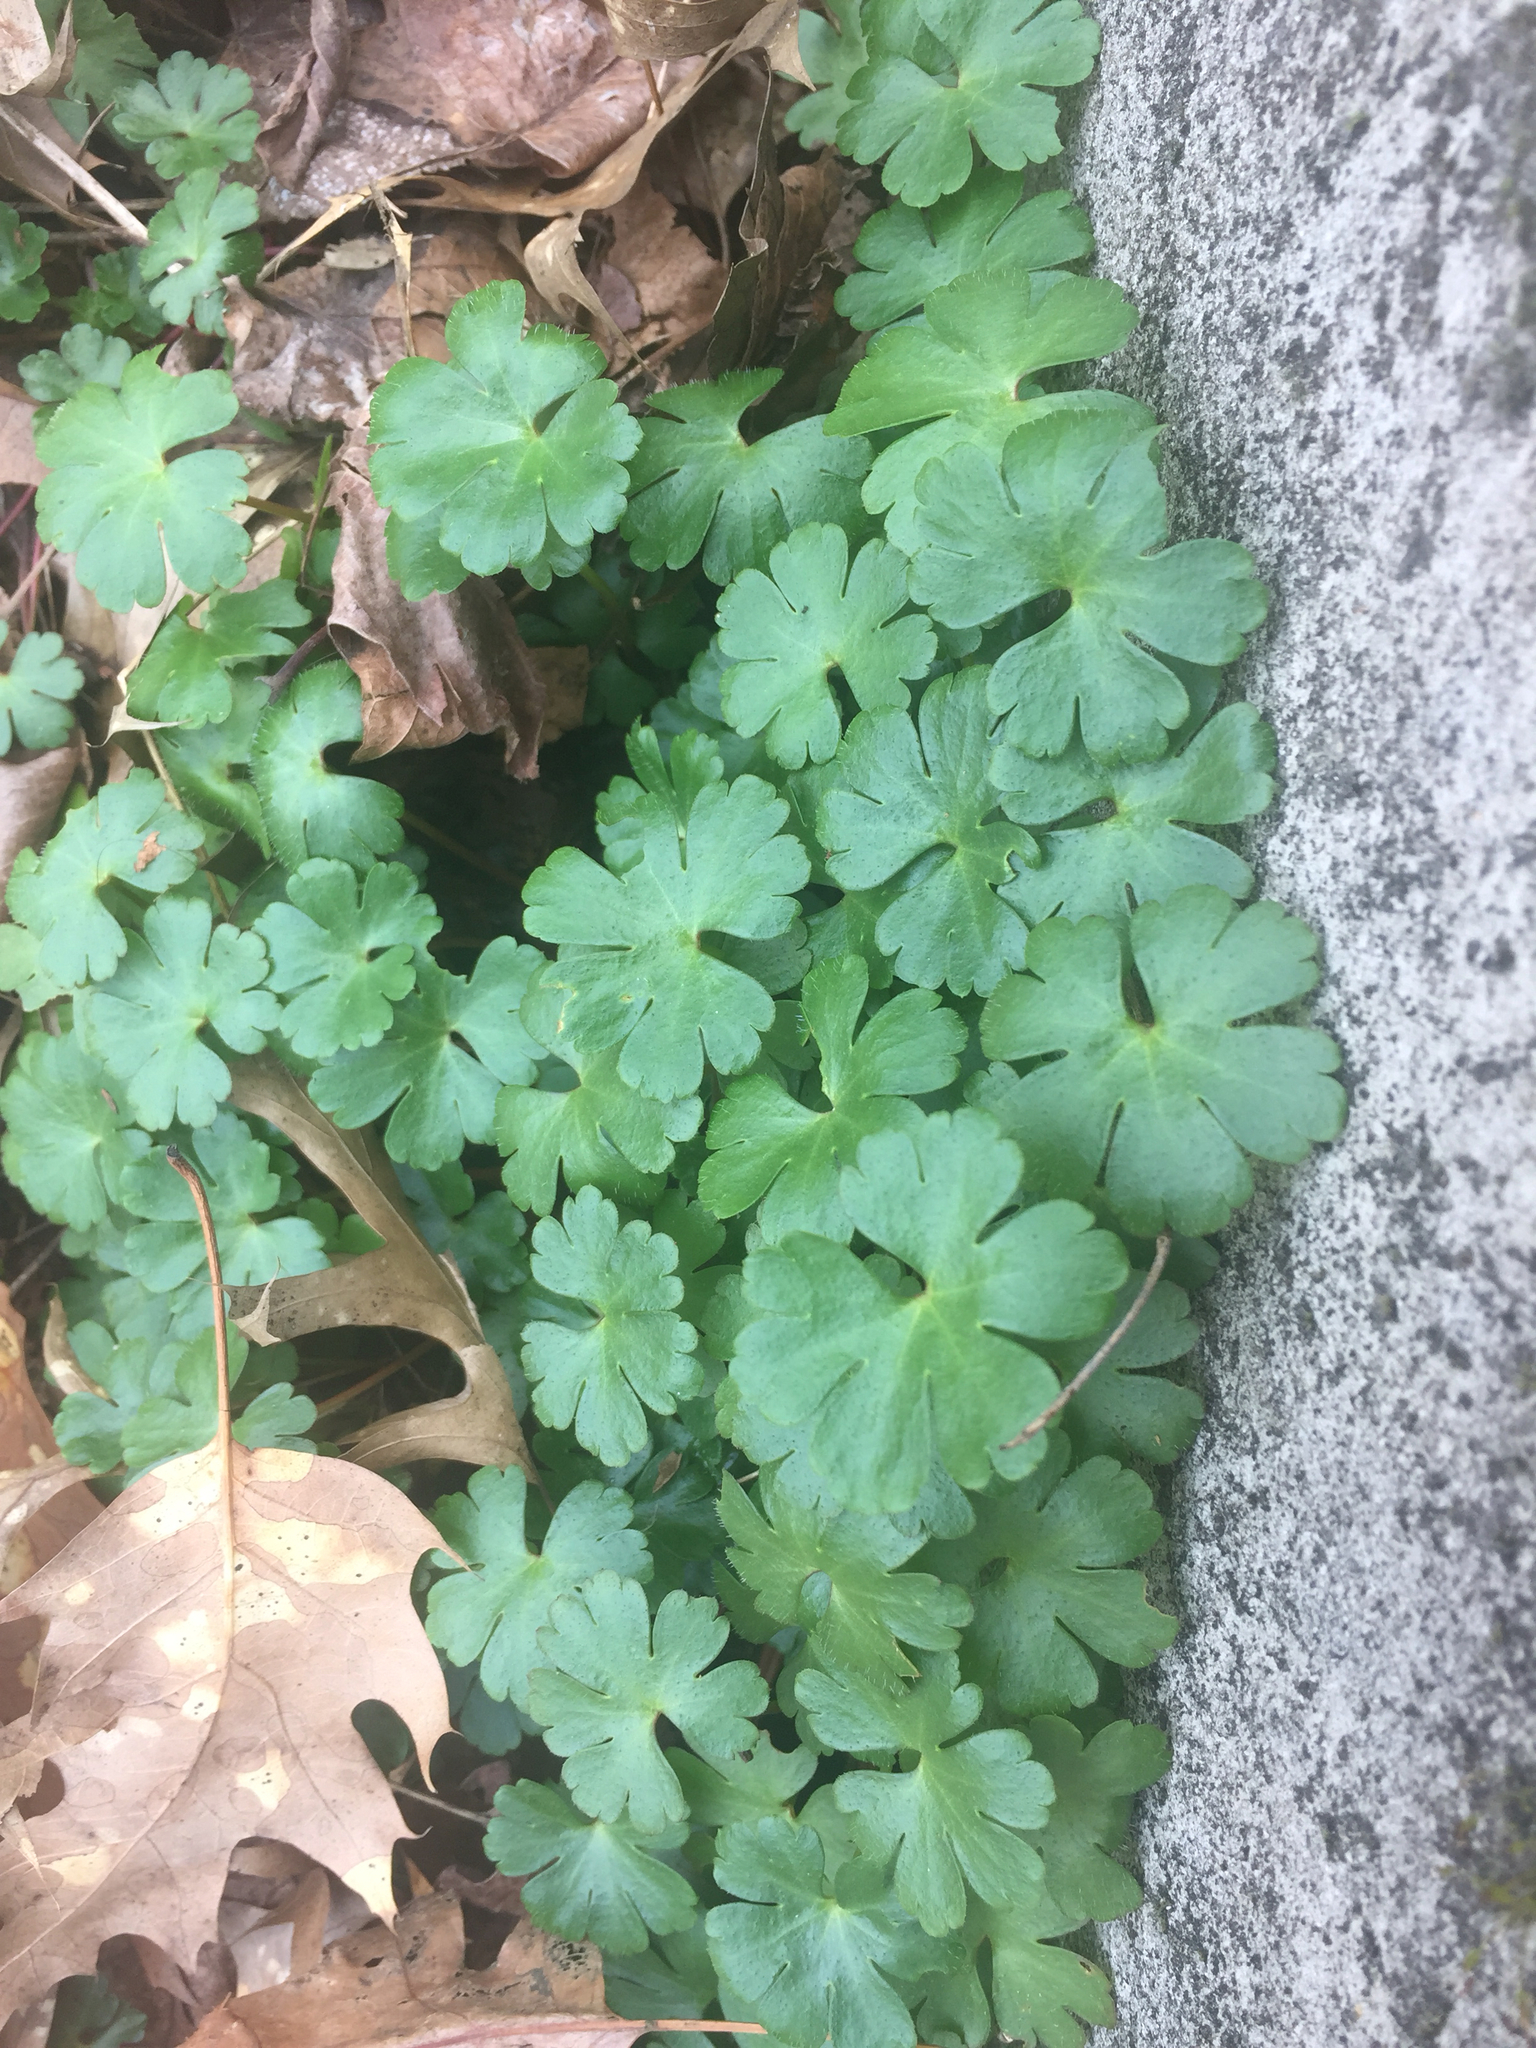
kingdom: Plantae
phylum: Tracheophyta
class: Magnoliopsida
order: Geraniales
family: Geraniaceae
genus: Geranium
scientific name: Geranium lucidum
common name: Shining crane's-bill
